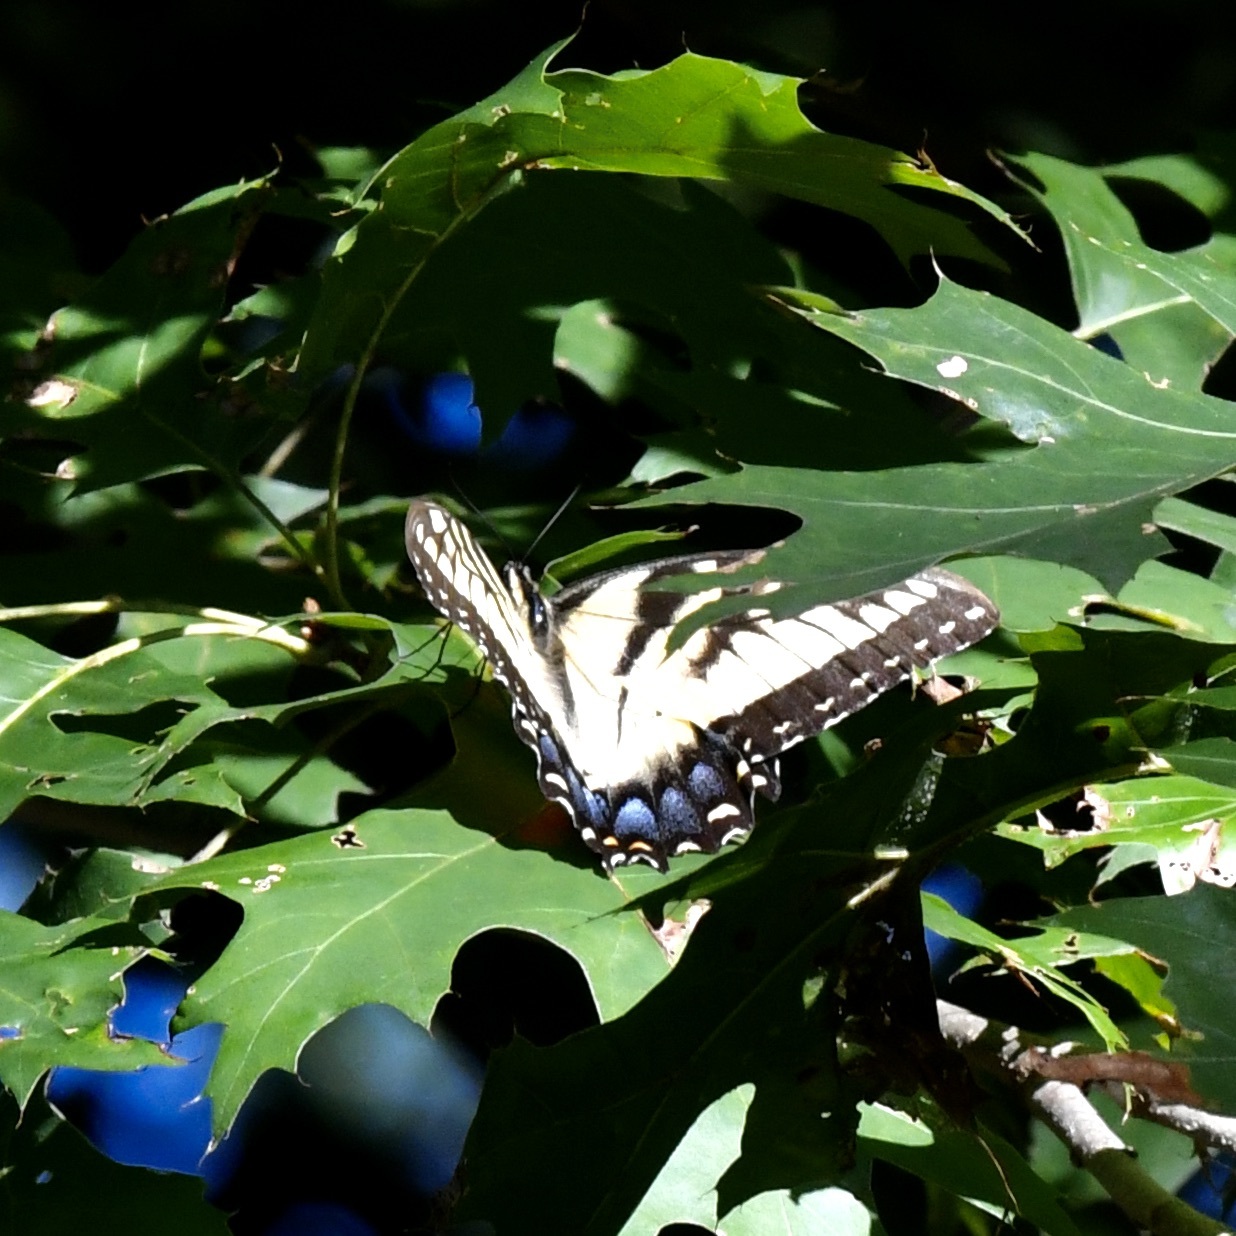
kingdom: Animalia
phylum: Arthropoda
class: Insecta
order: Lepidoptera
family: Papilionidae
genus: Papilio
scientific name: Papilio glaucus
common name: Tiger swallowtail
